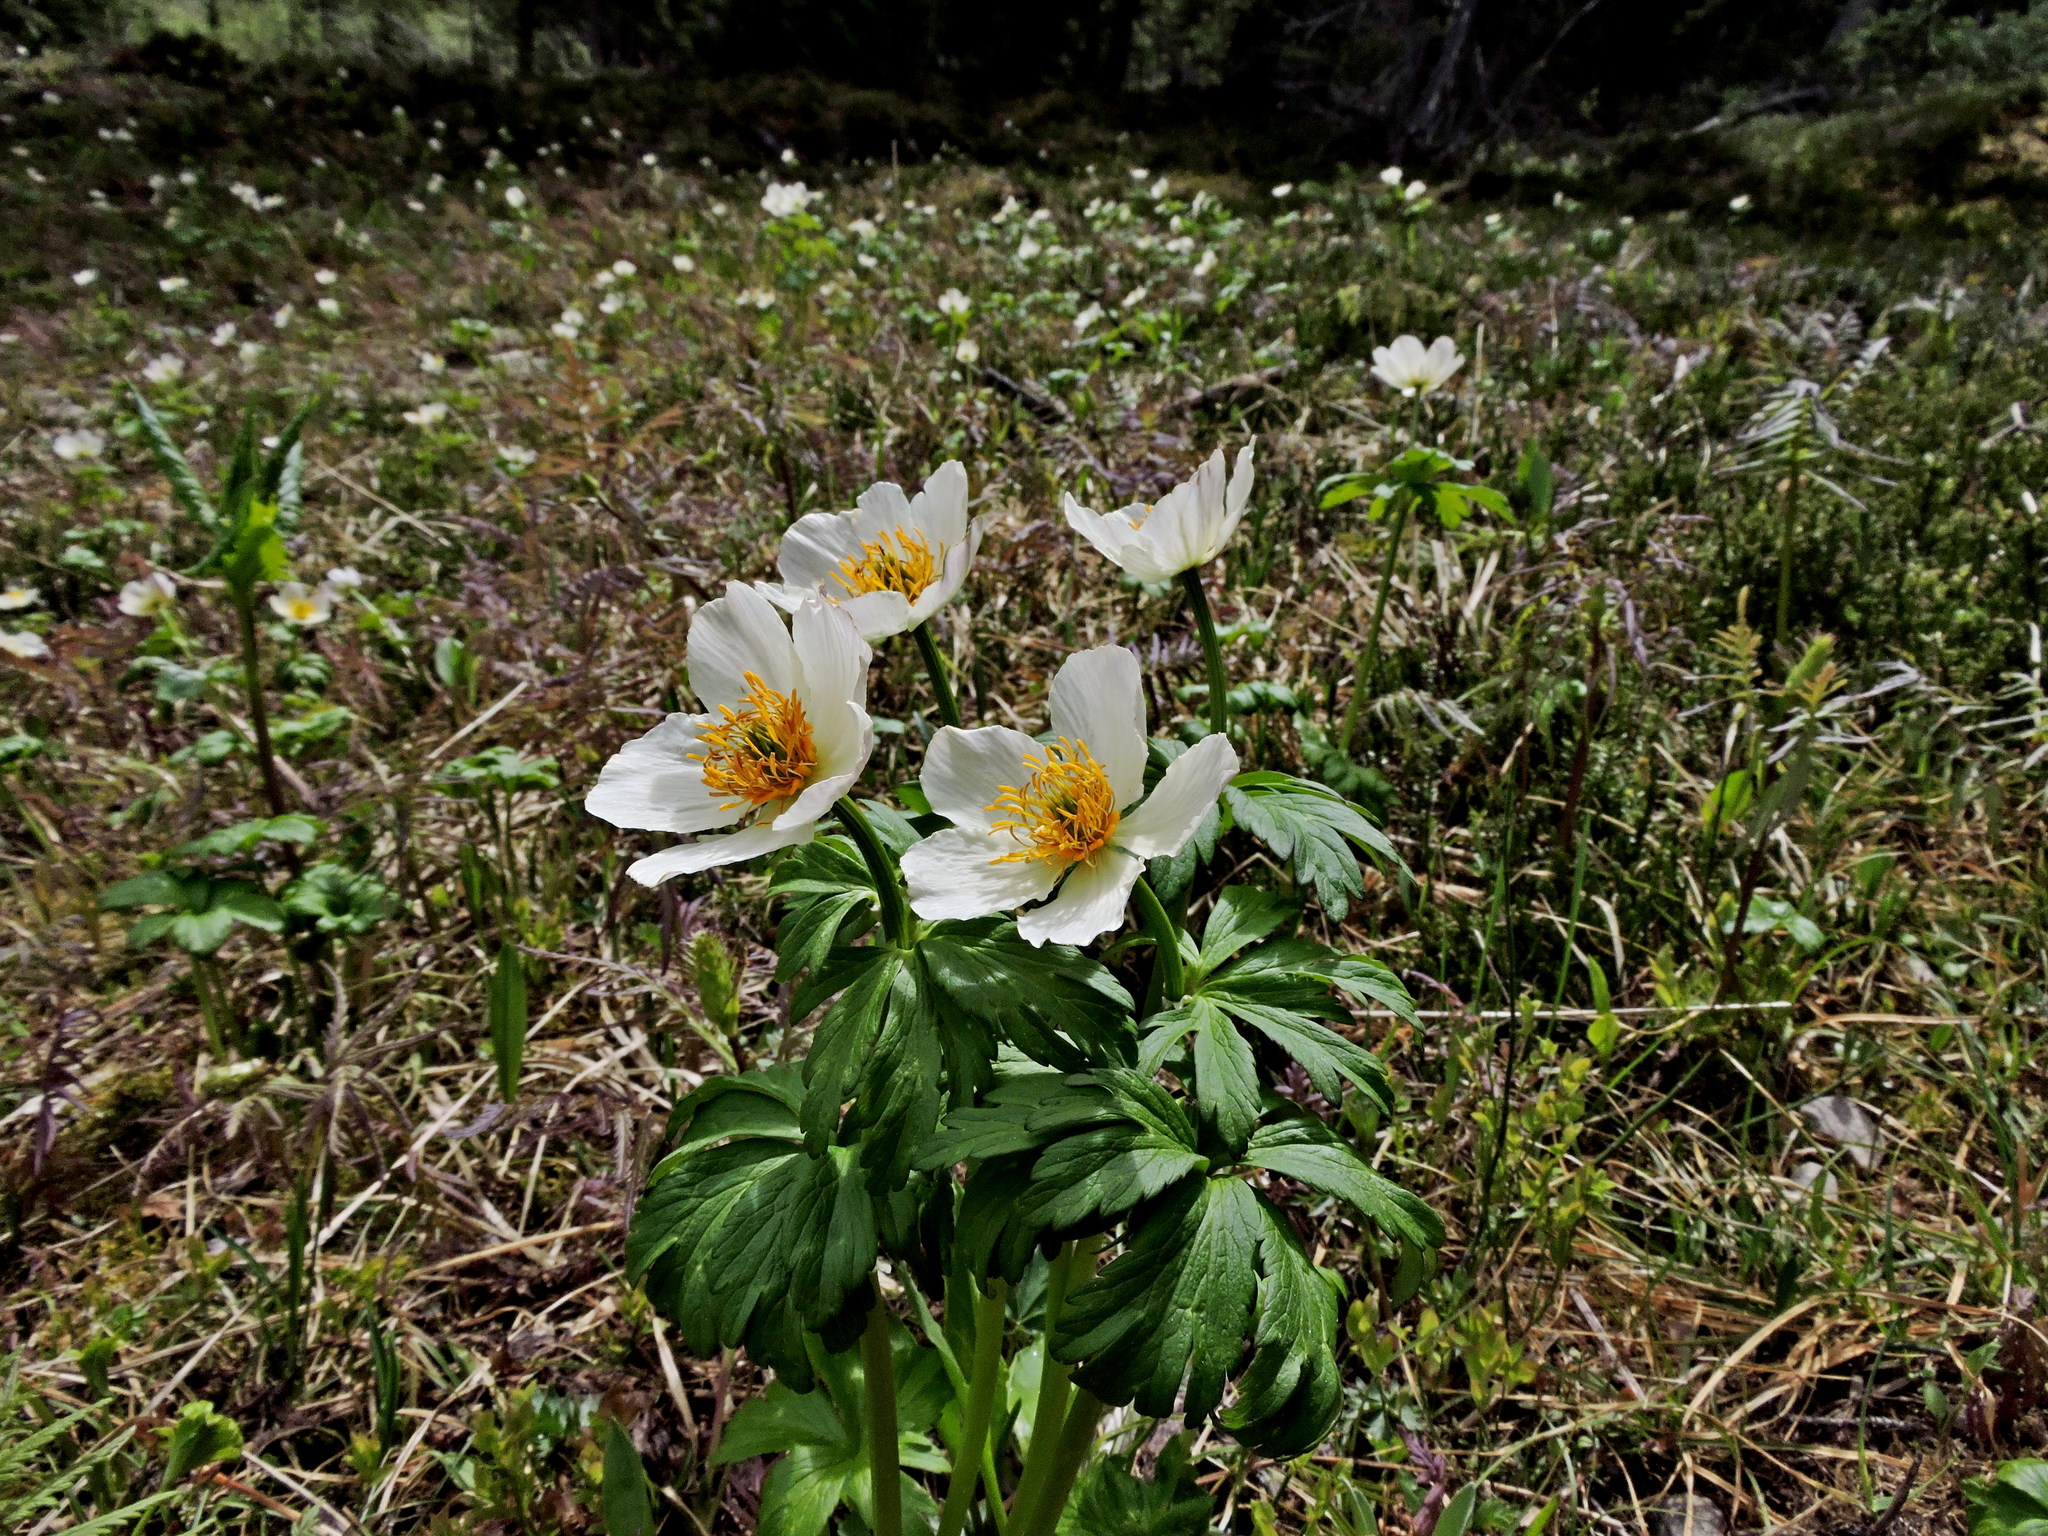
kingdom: Plantae
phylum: Tracheophyta
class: Magnoliopsida
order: Ranunculales
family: Ranunculaceae
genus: Trollius
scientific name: Trollius laxus
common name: American globeflower
